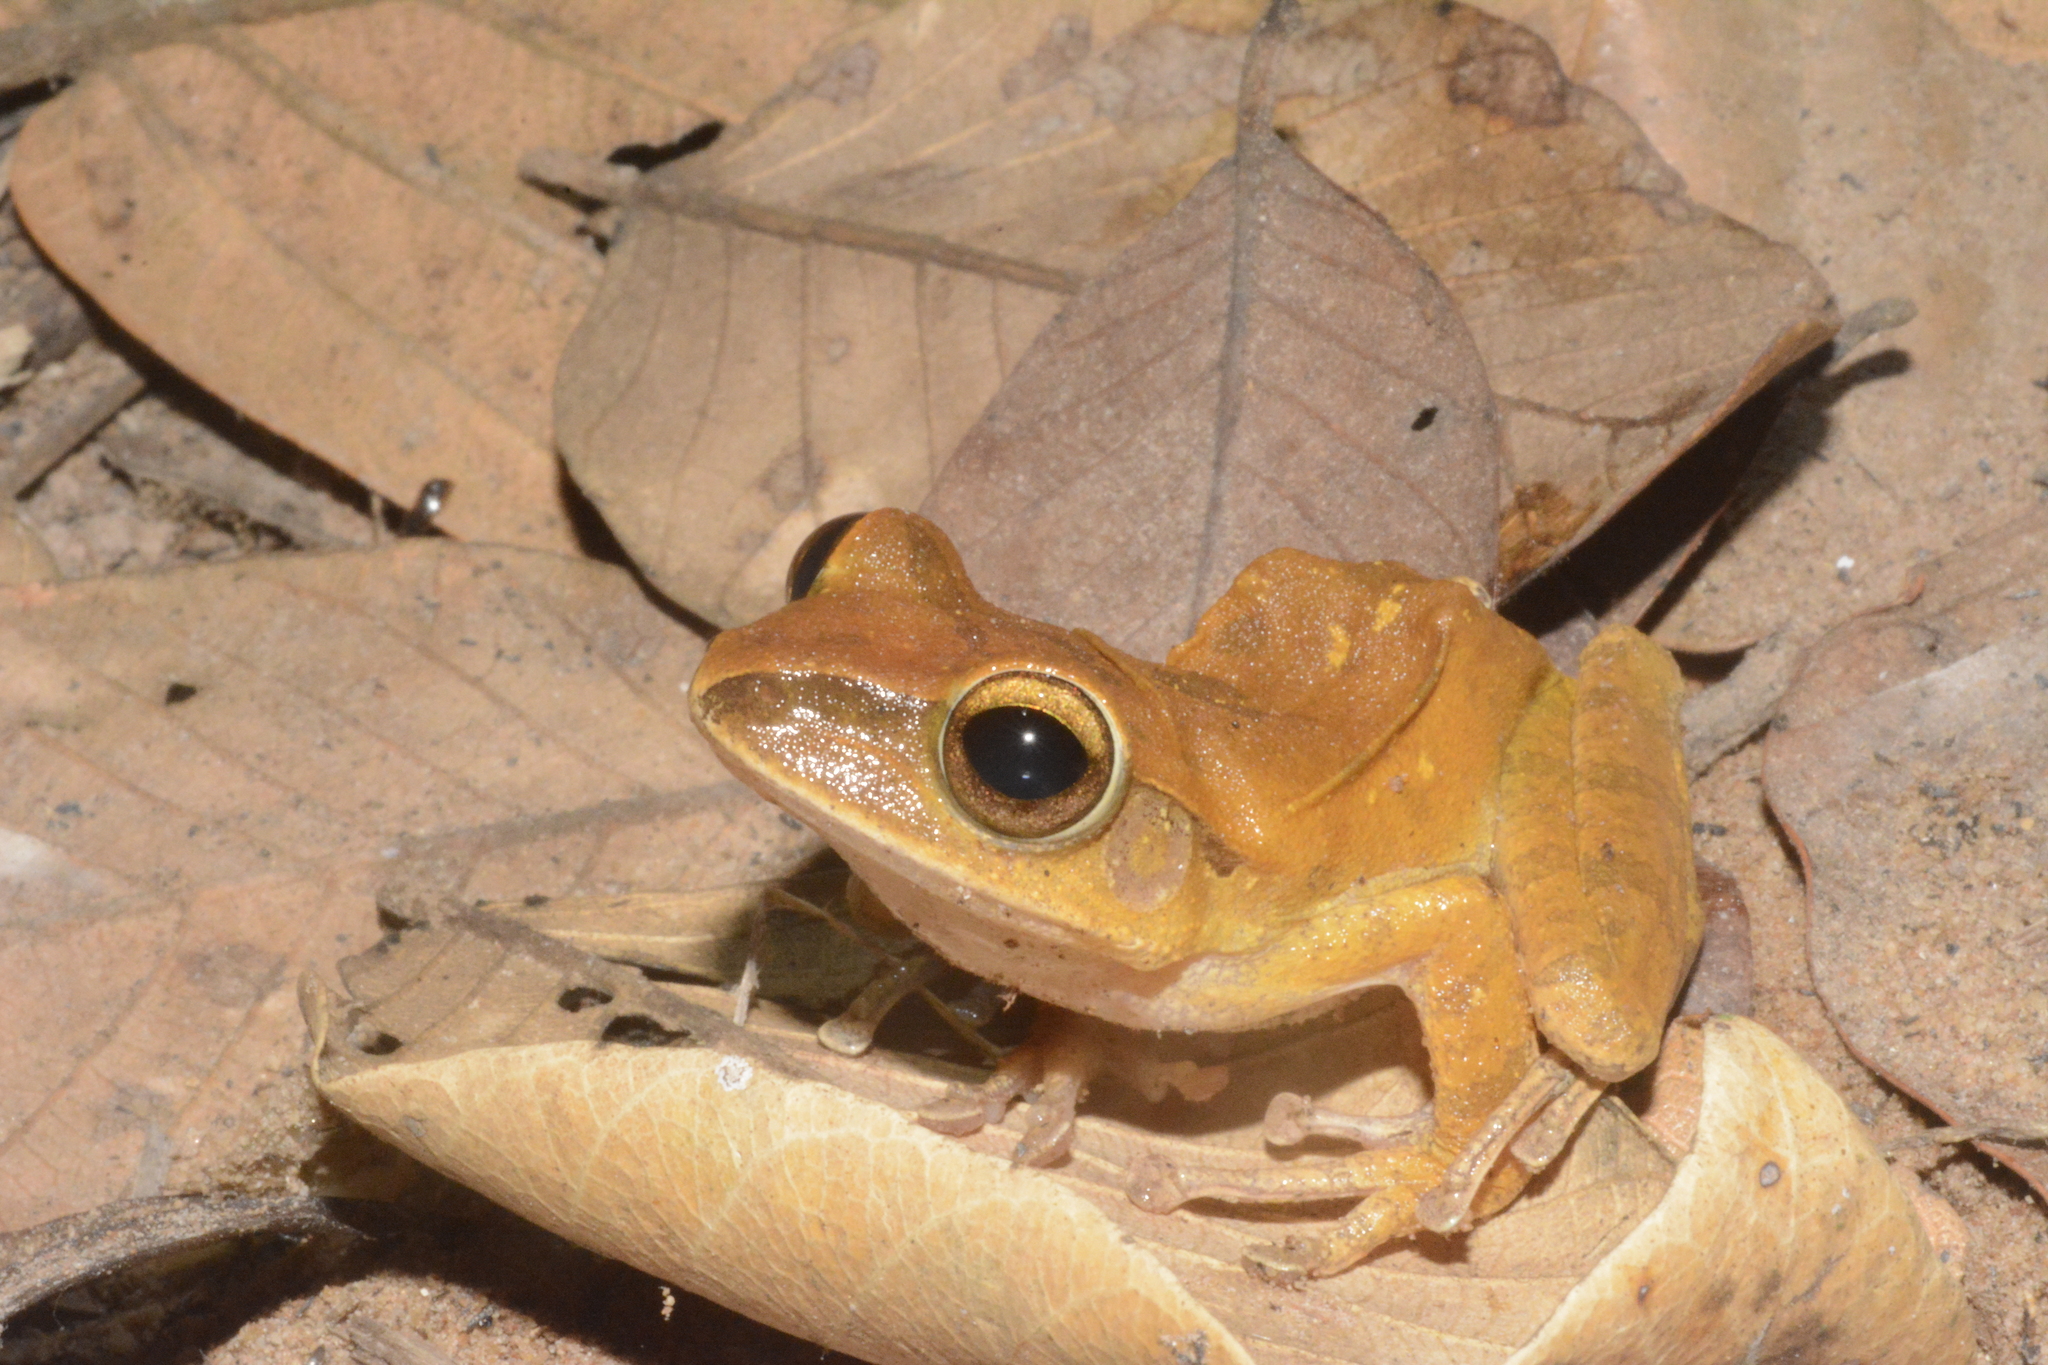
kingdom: Animalia
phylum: Chordata
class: Amphibia
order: Anura
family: Rhacophoridae
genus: Polypedates
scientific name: Polypedates megacephalus
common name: Hong kong whipping frog
